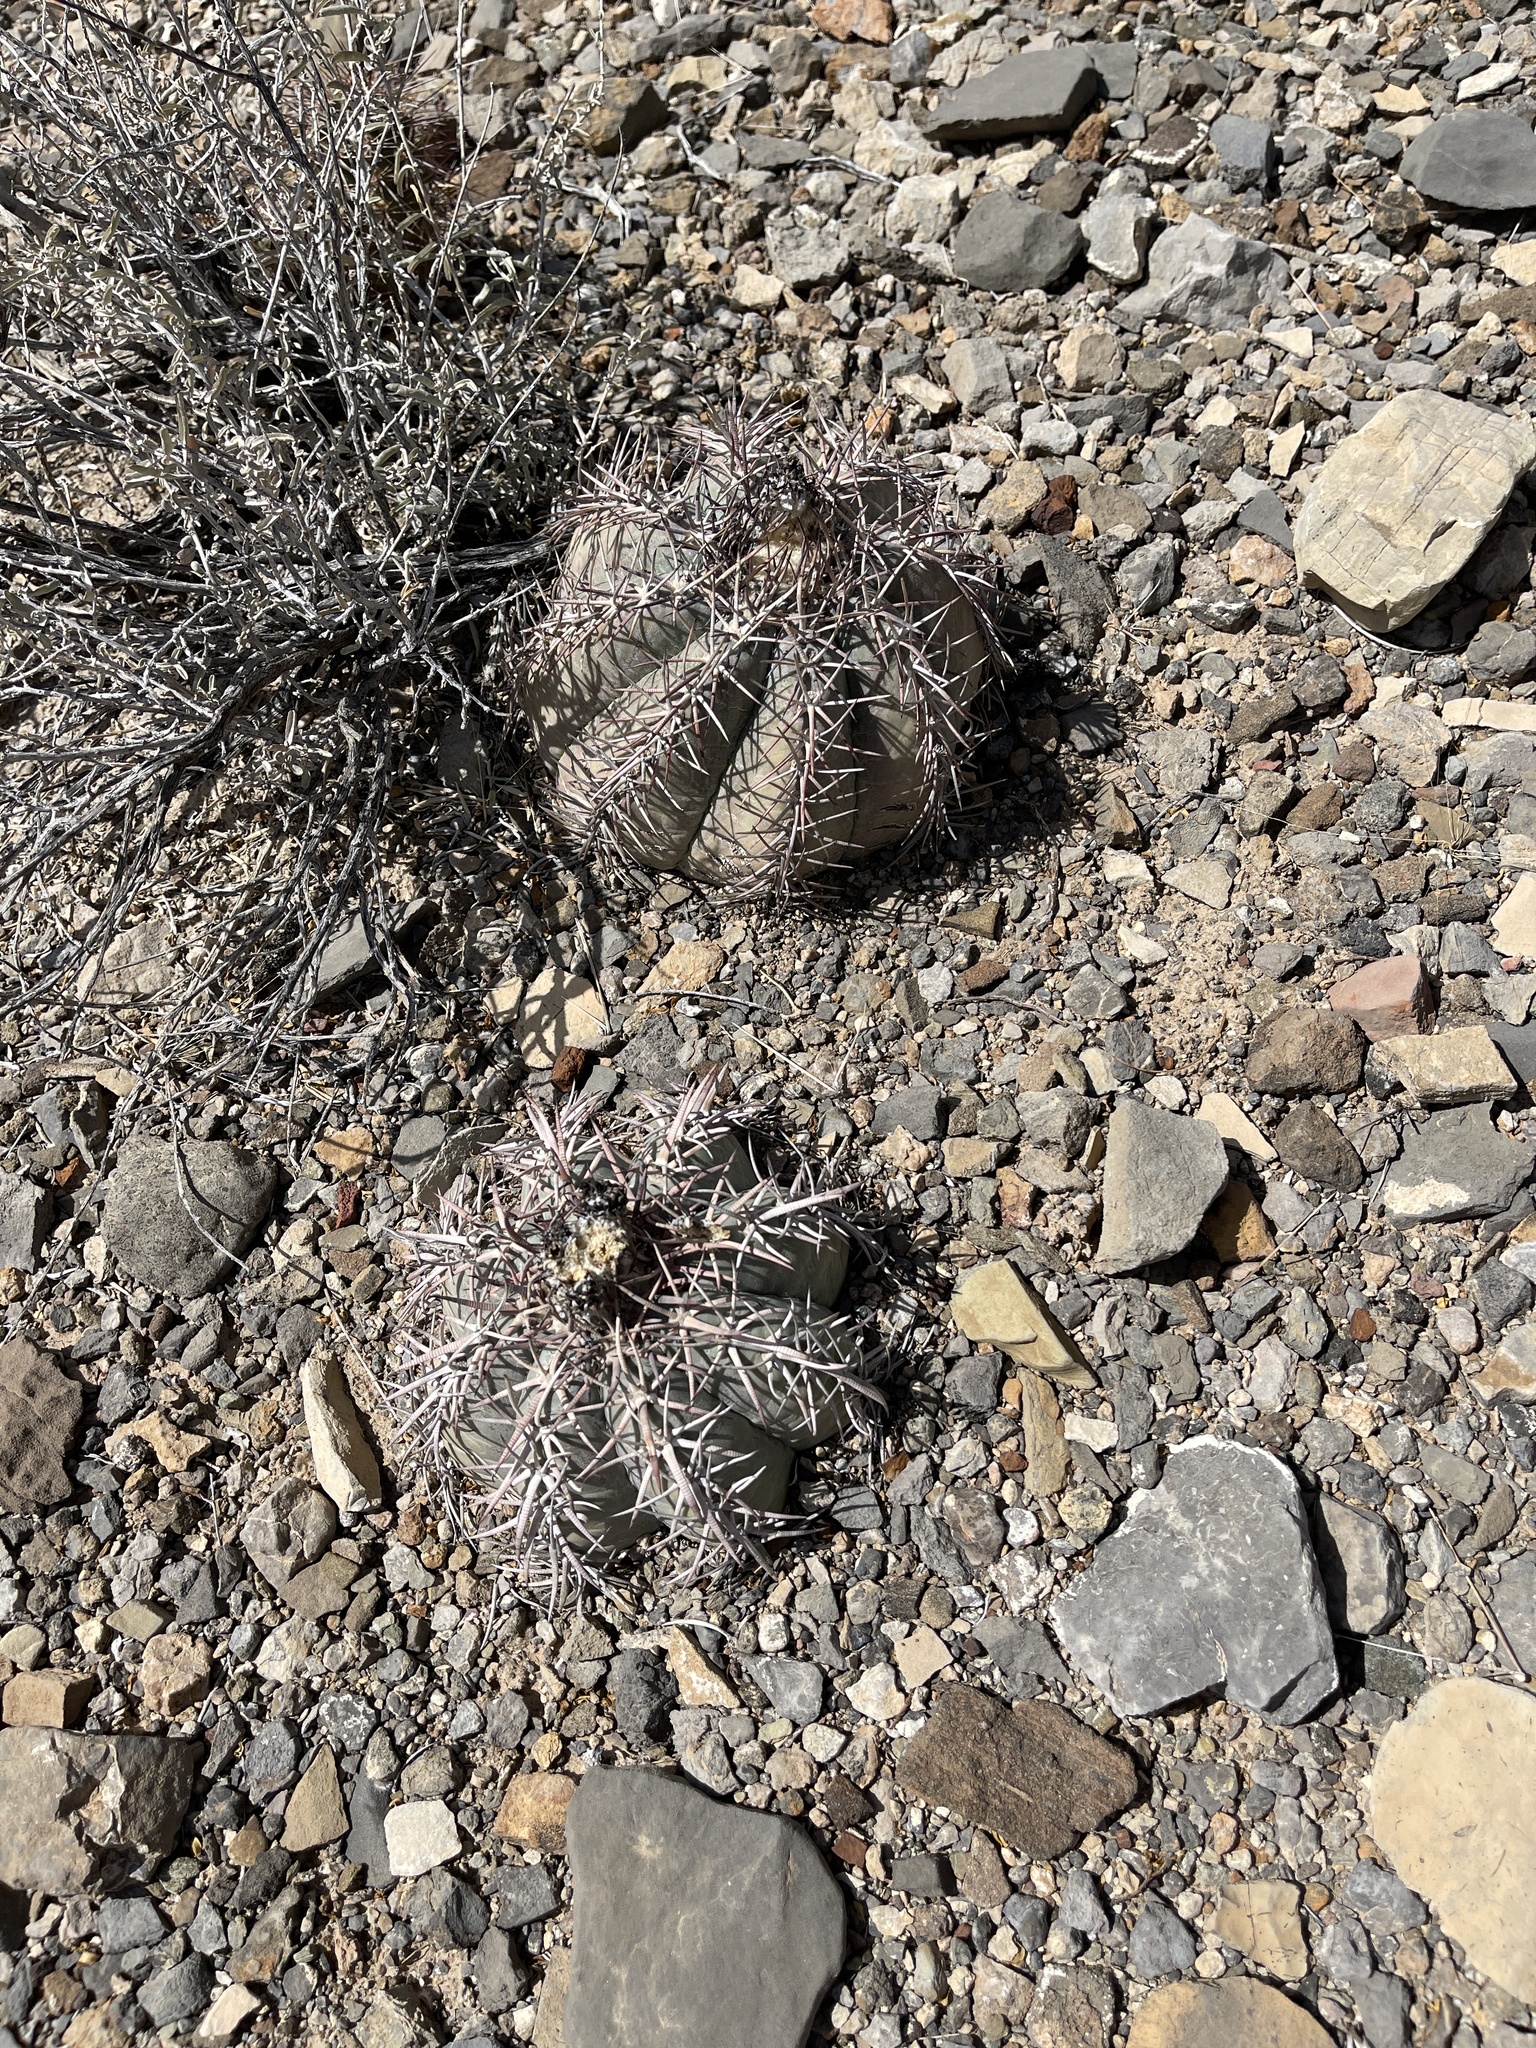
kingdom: Plantae
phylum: Tracheophyta
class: Magnoliopsida
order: Caryophyllales
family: Cactaceae
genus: Echinocactus
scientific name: Echinocactus horizonthalonius
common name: Devilshead
